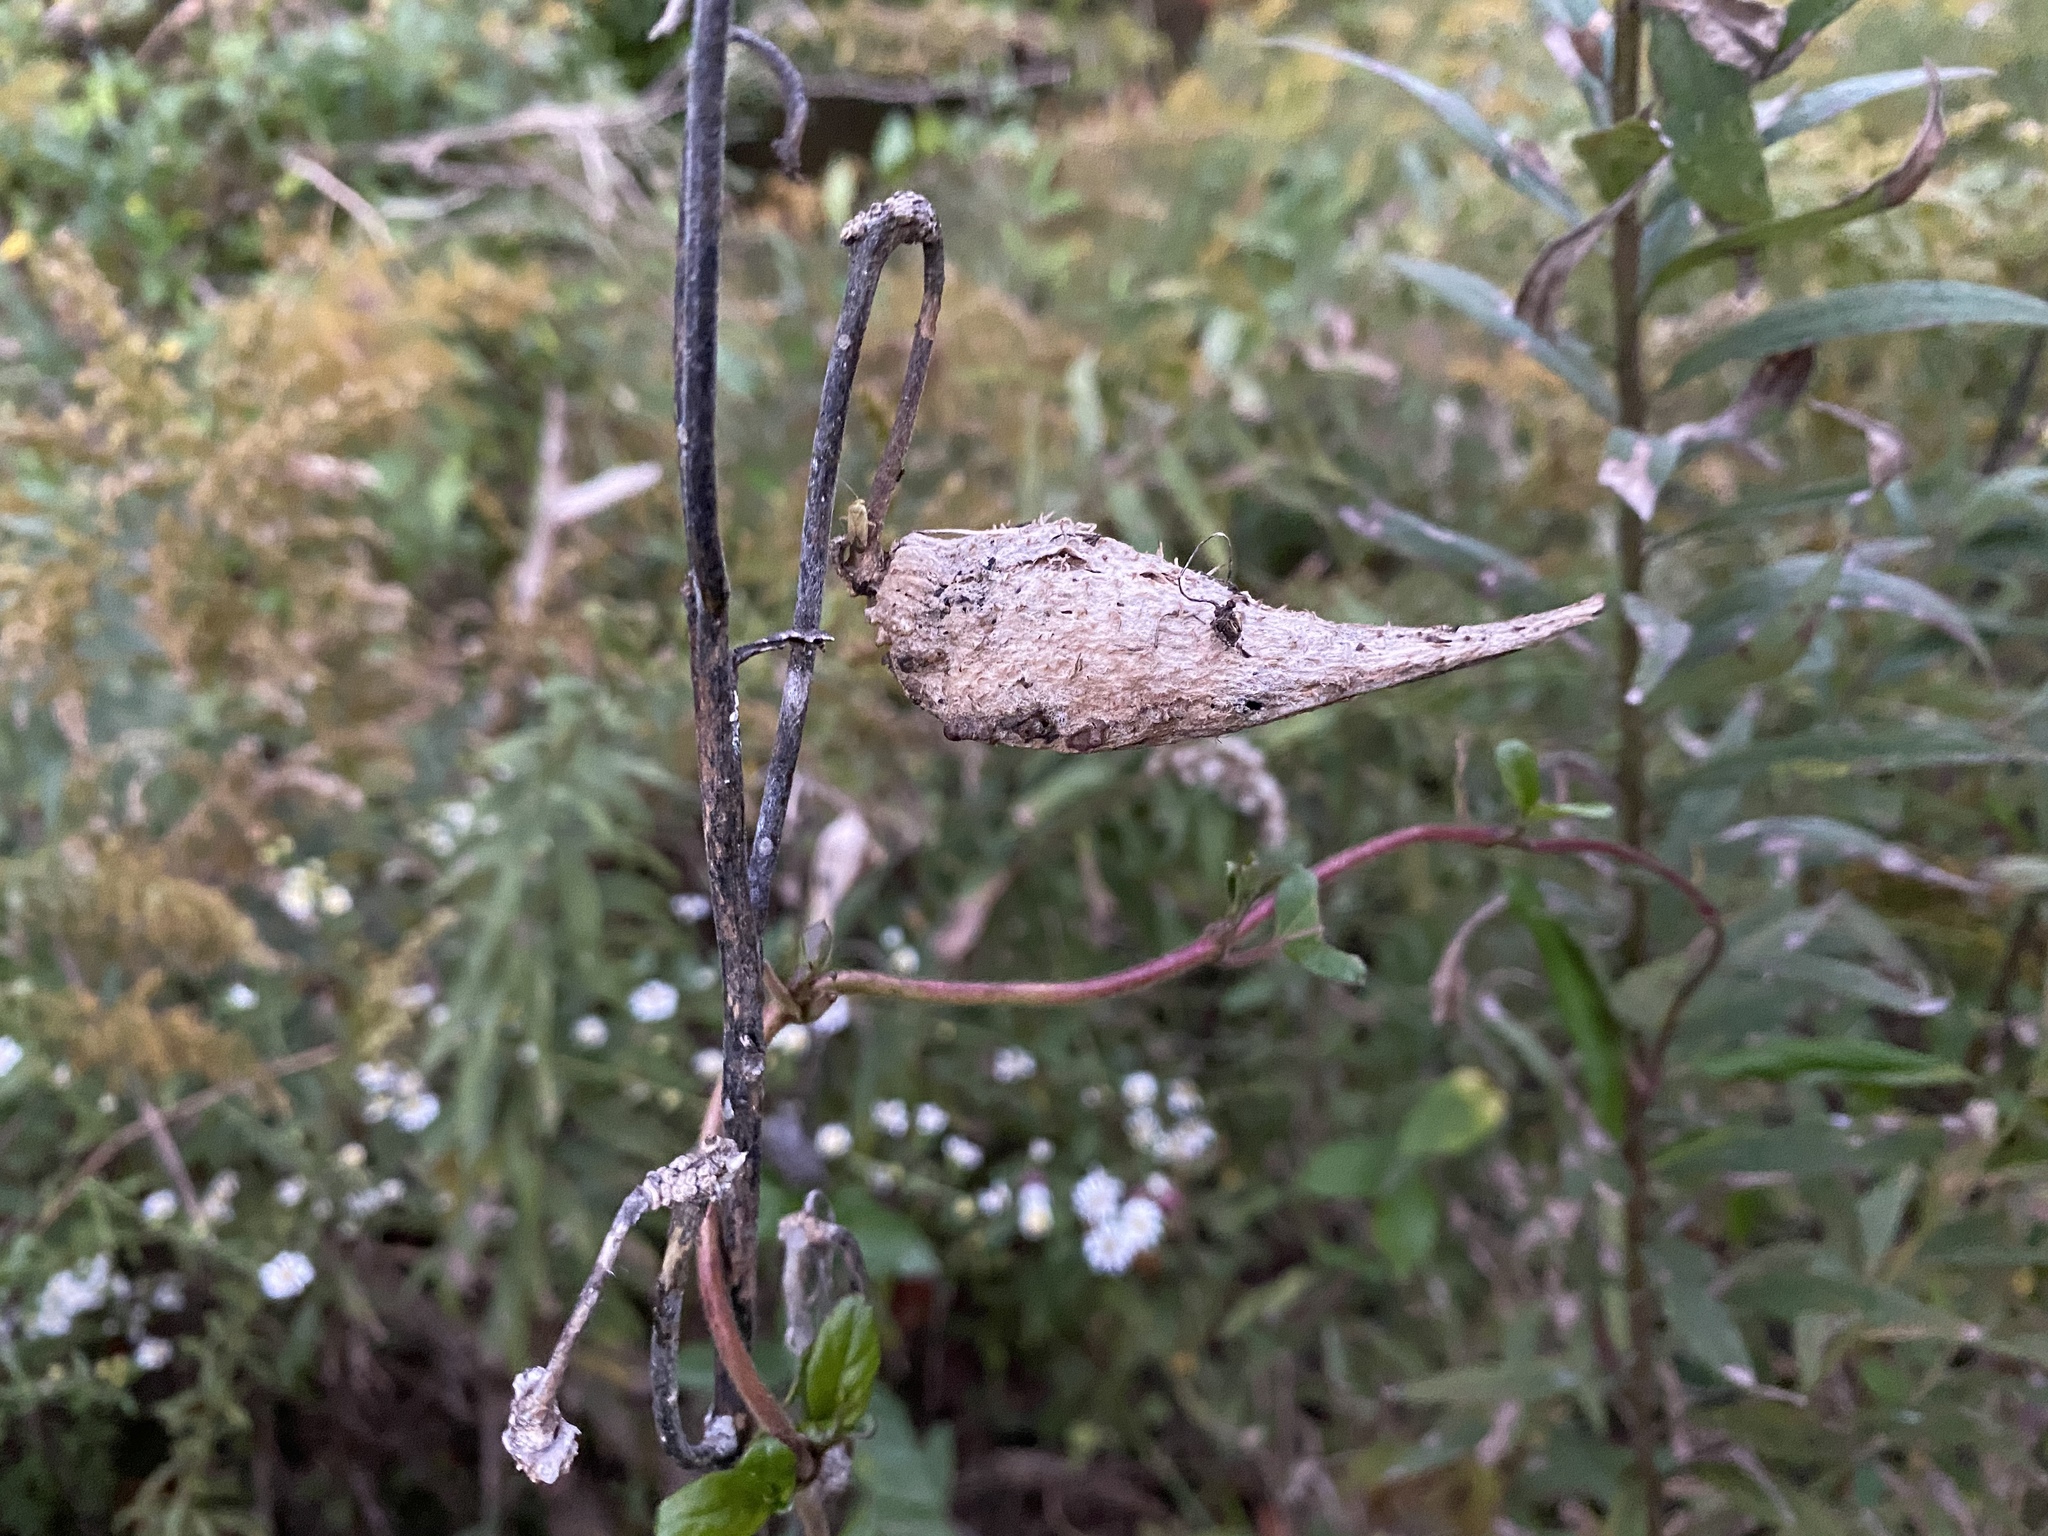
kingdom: Plantae
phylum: Tracheophyta
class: Magnoliopsida
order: Gentianales
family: Apocynaceae
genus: Asclepias
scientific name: Asclepias syriaca
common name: Common milkweed
